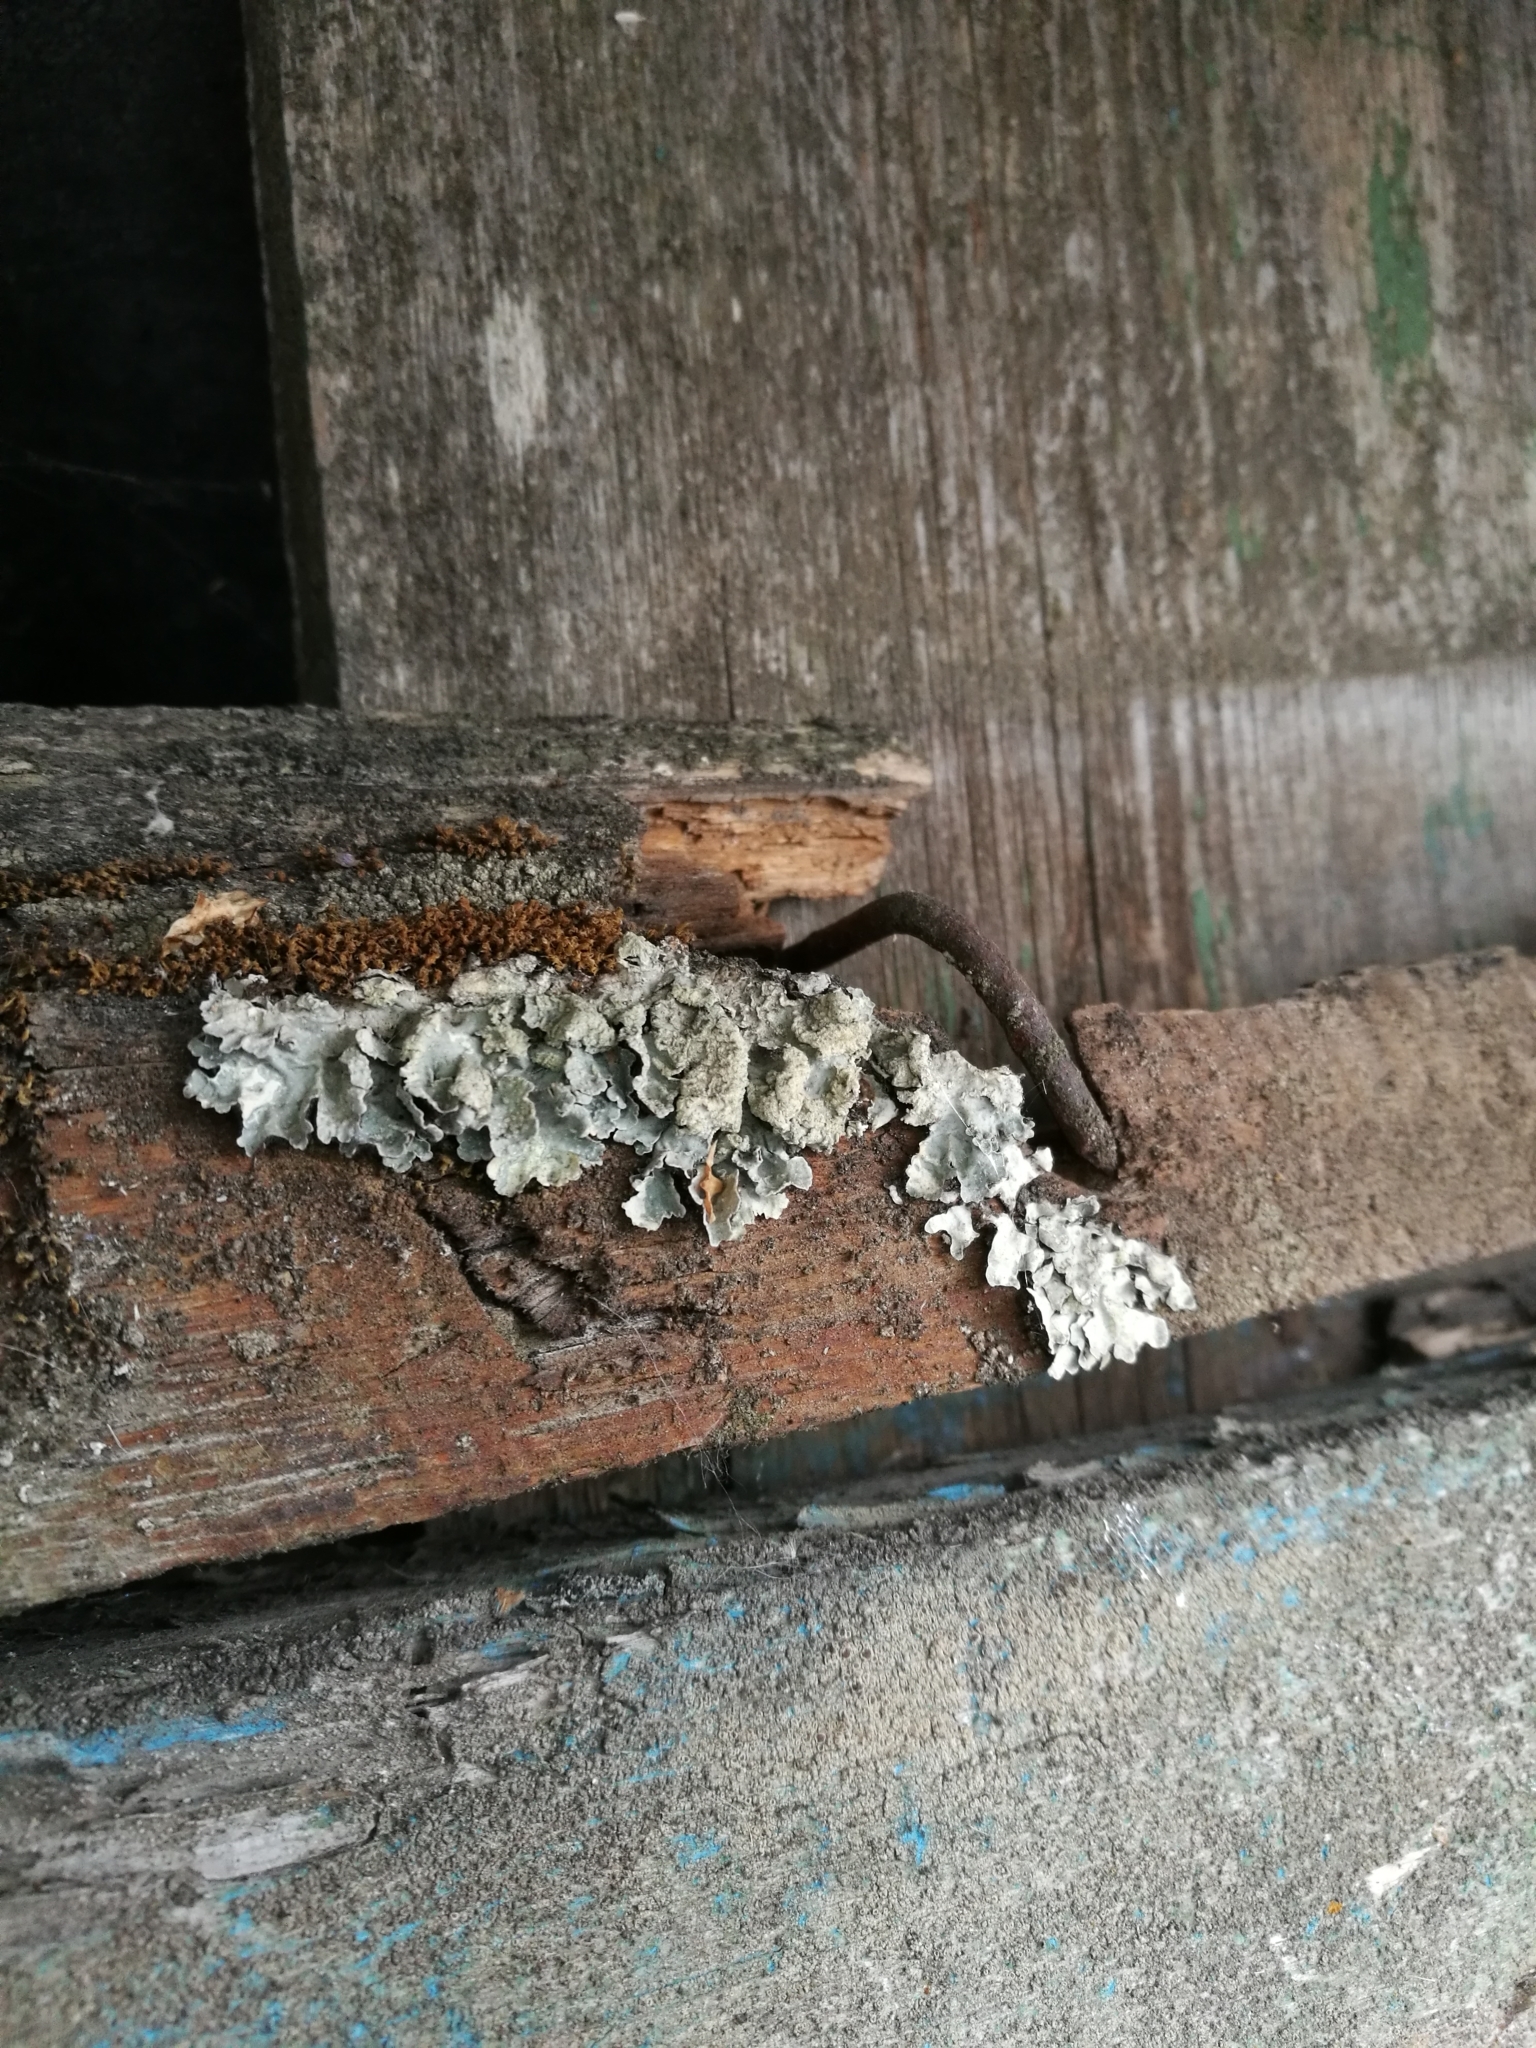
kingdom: Fungi
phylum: Ascomycota
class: Lecanoromycetes
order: Lecanorales
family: Parmeliaceae
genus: Parmelia
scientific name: Parmelia sulcata
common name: Netted shield lichen
